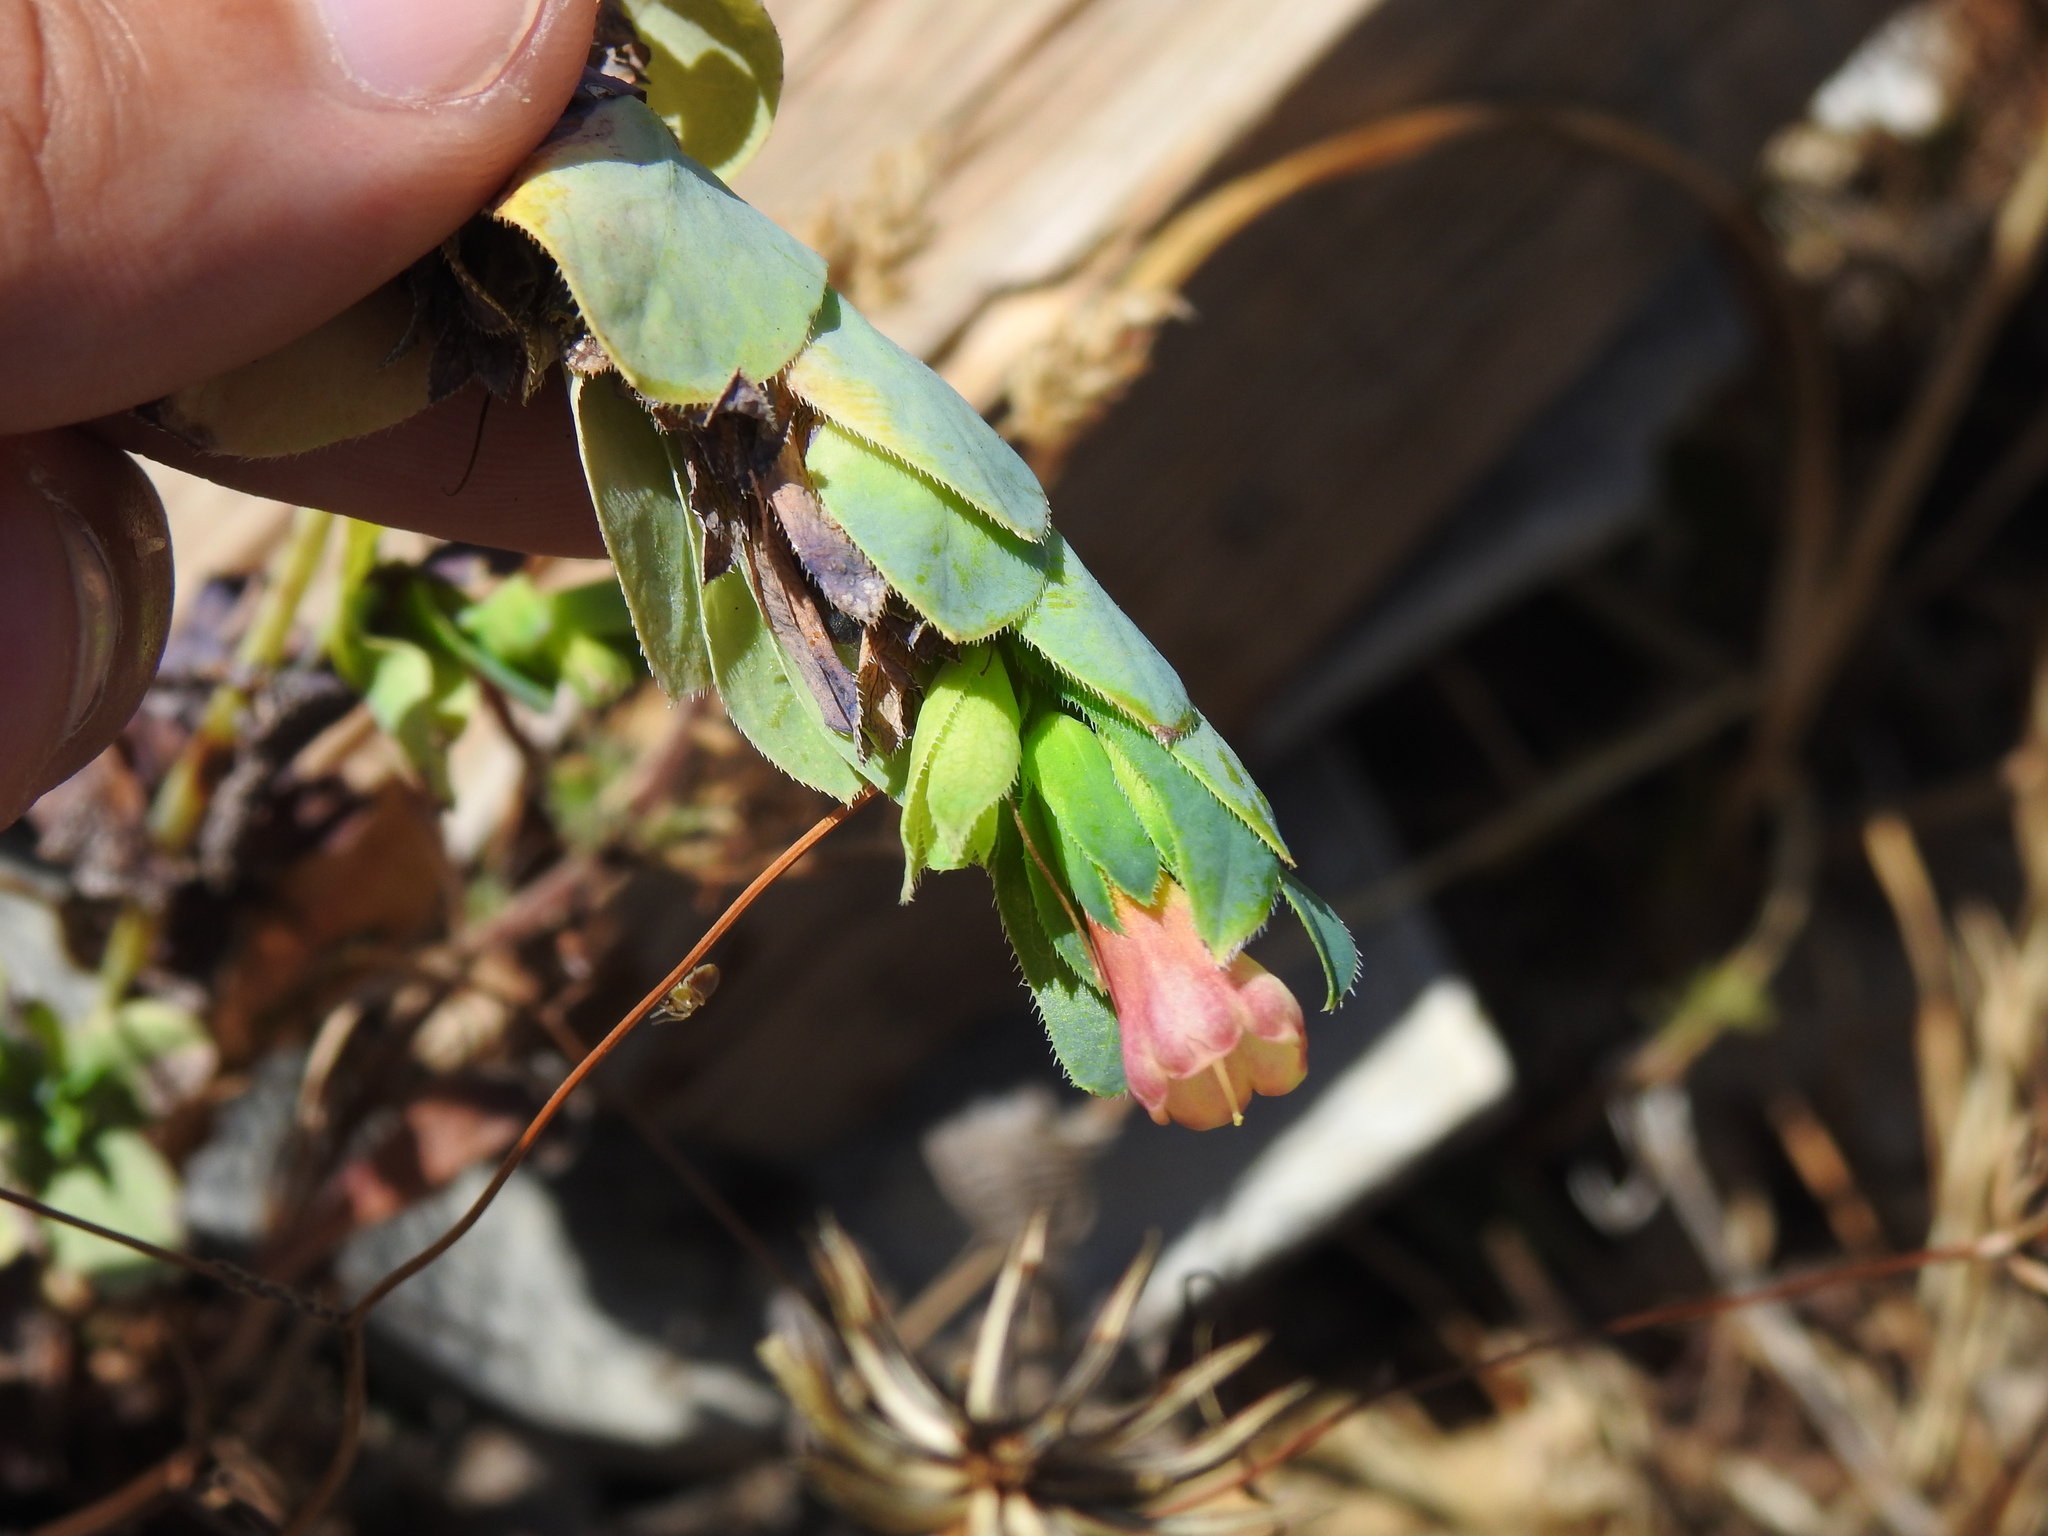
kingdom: Plantae
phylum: Tracheophyta
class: Magnoliopsida
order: Boraginales
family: Boraginaceae
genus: Cerinthe
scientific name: Cerinthe major
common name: Greater honeywort
